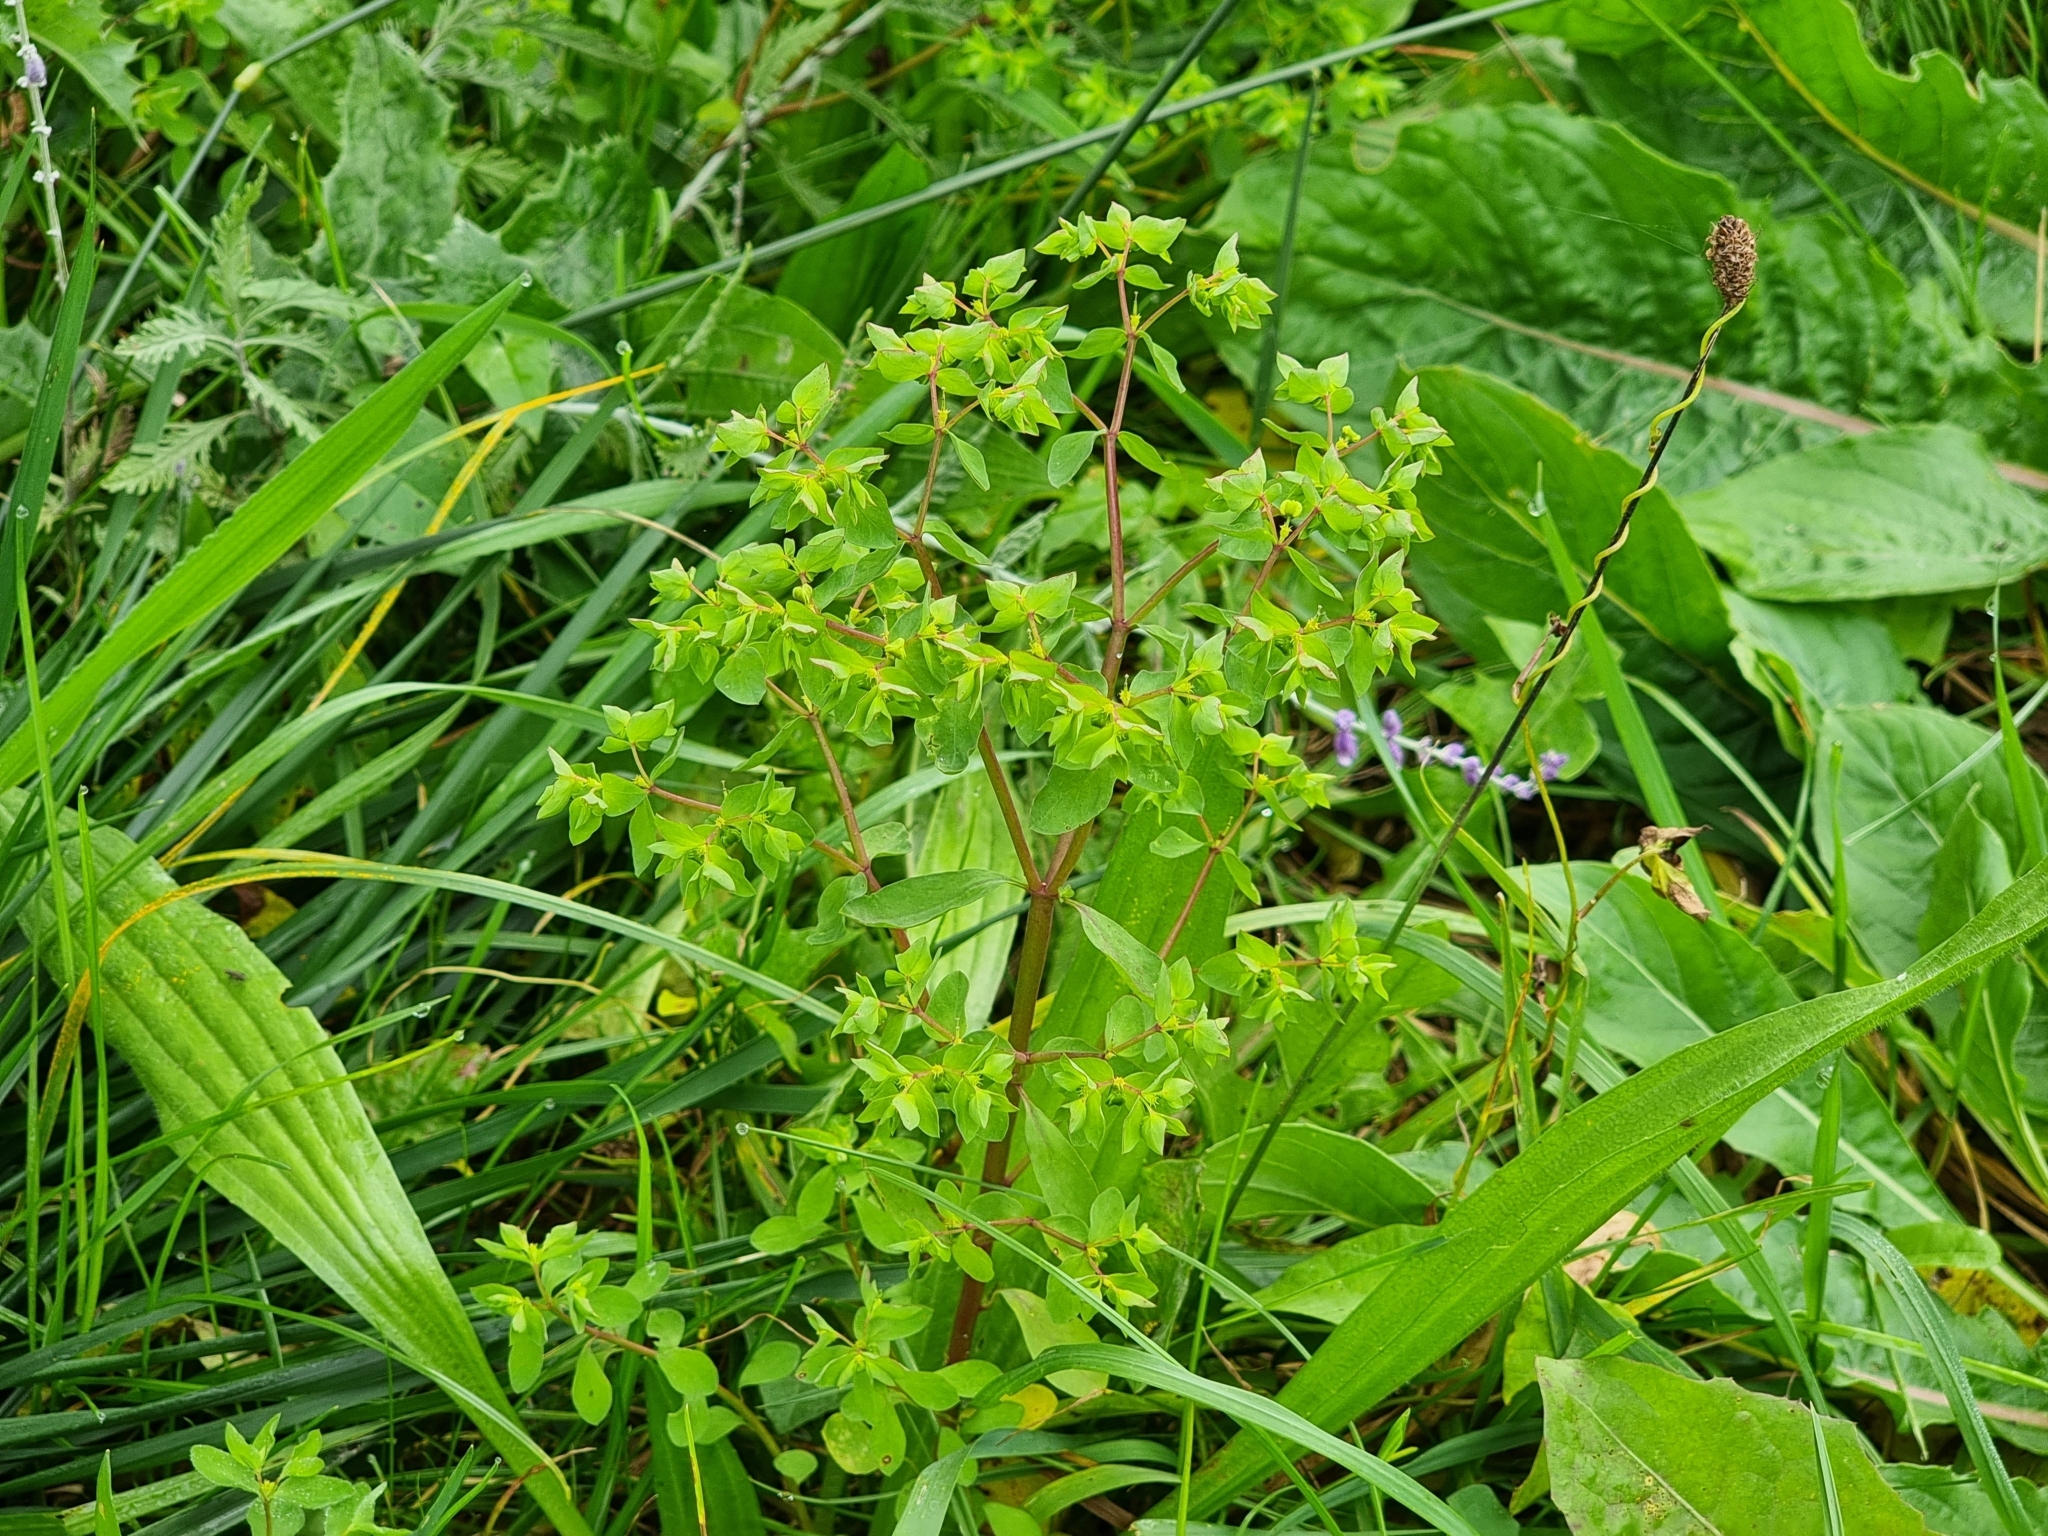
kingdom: Plantae
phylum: Tracheophyta
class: Magnoliopsida
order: Malpighiales
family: Euphorbiaceae
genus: Euphorbia
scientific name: Euphorbia peplus
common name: Petty spurge
